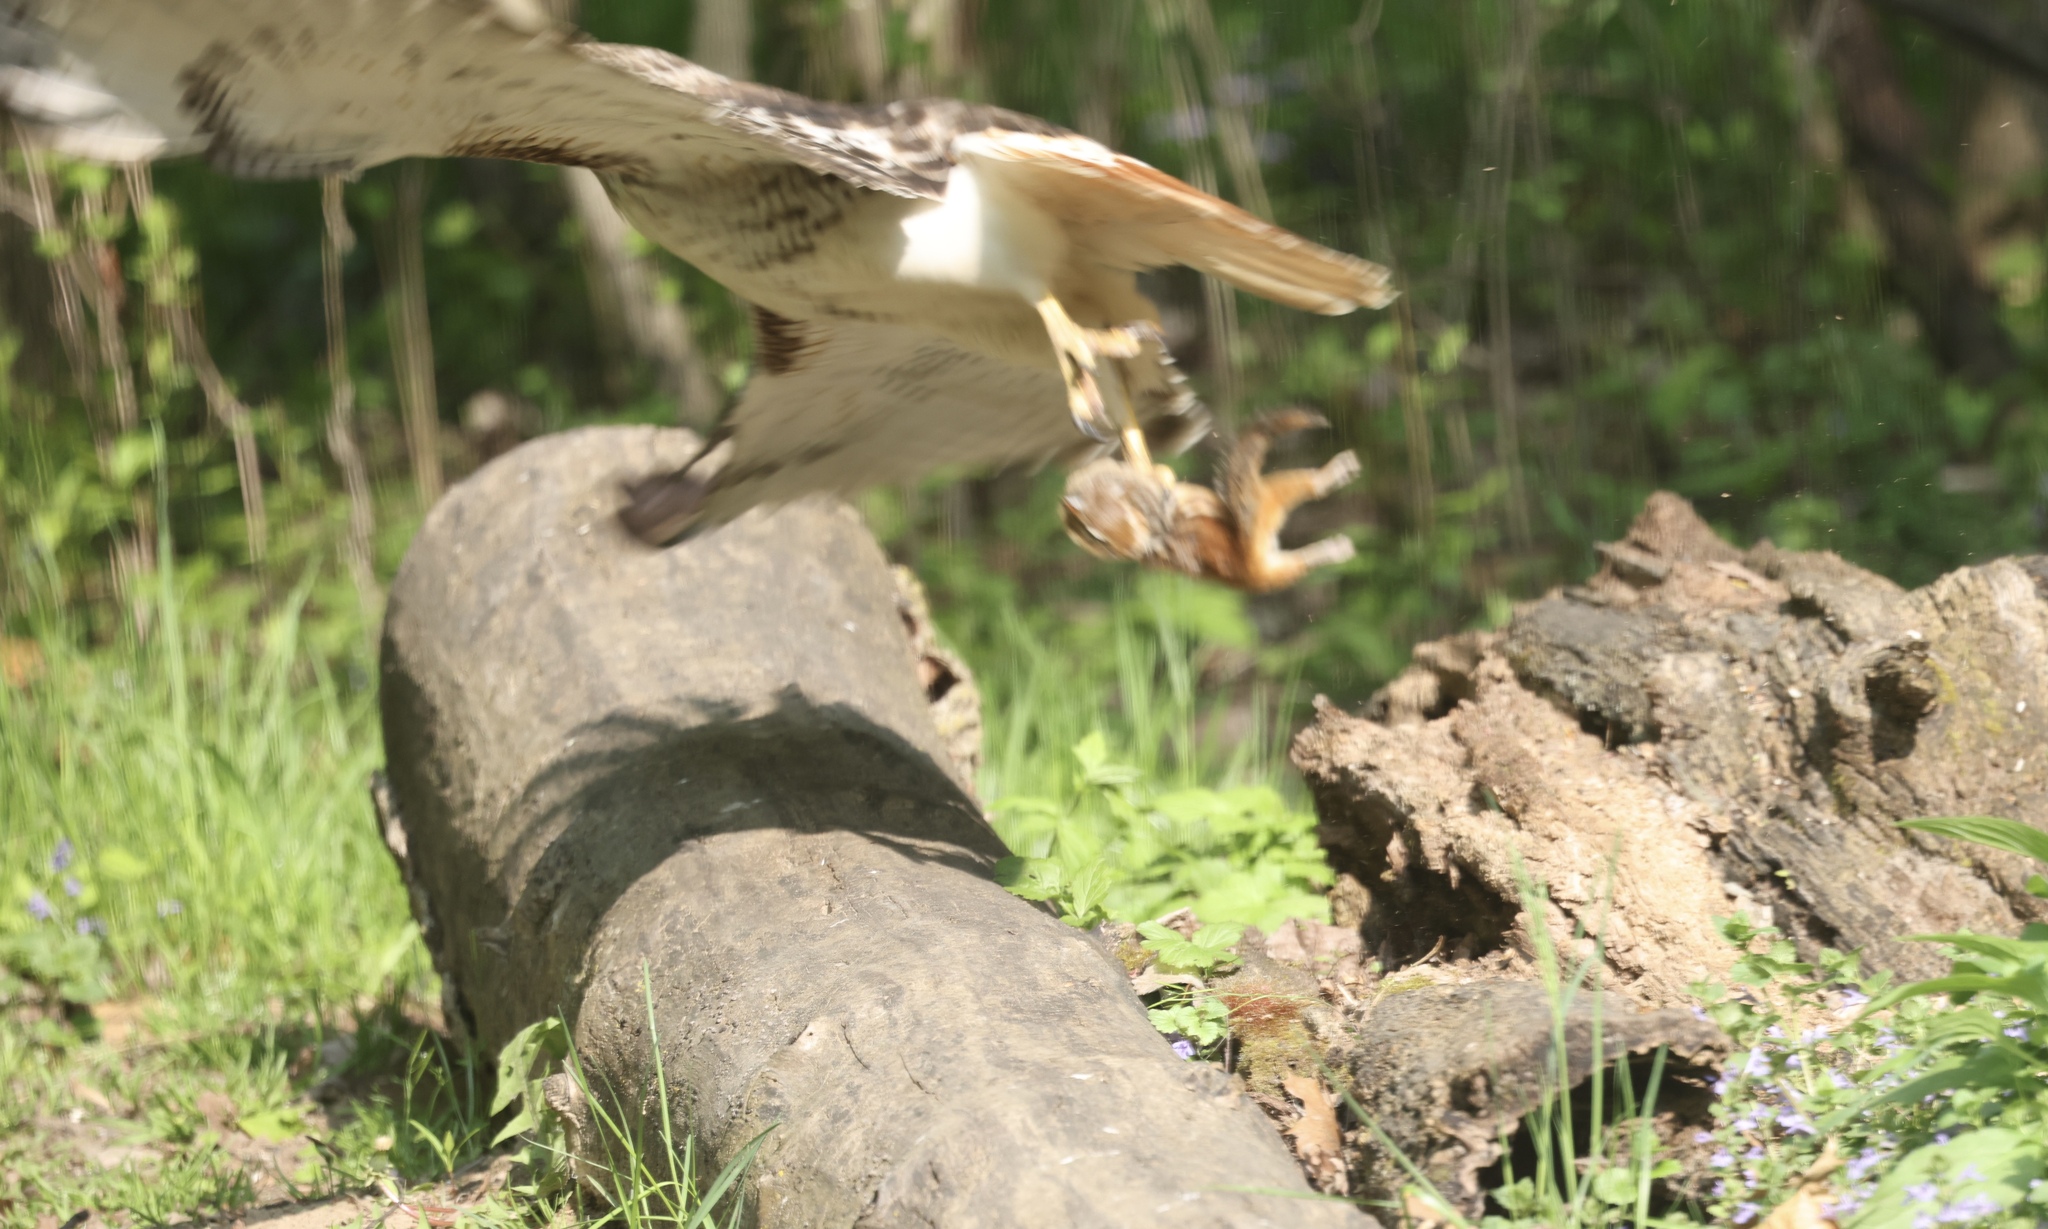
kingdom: Animalia
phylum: Chordata
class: Mammalia
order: Rodentia
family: Sciuridae
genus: Tamias
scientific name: Tamias striatus
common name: Eastern chipmunk
